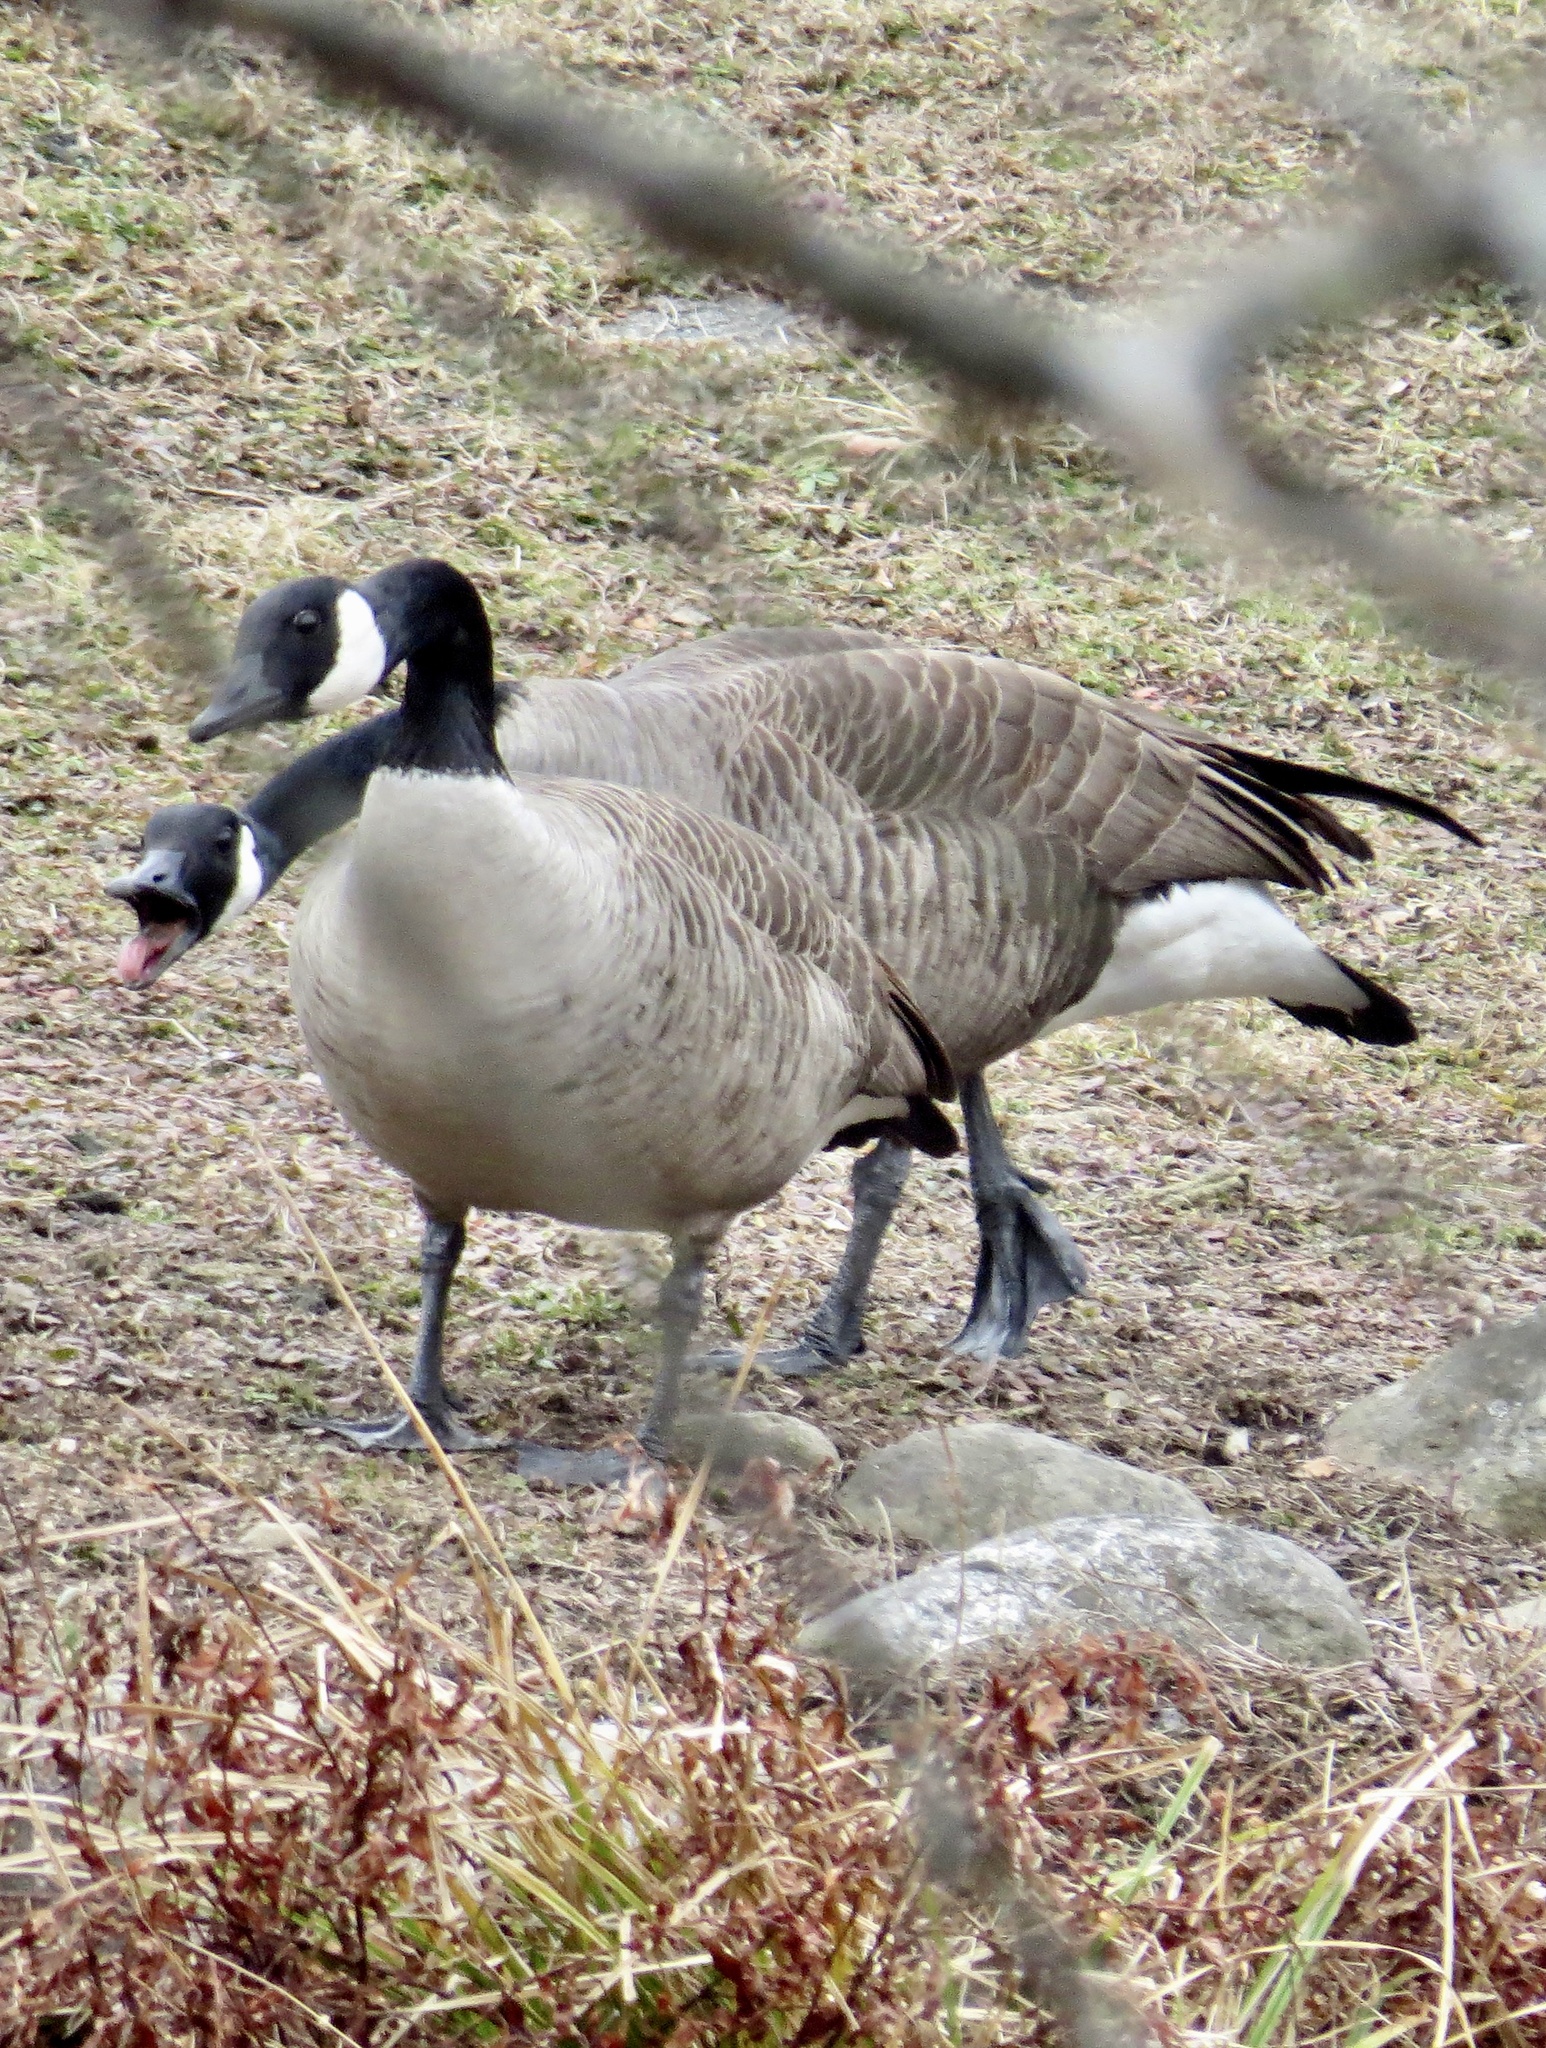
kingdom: Animalia
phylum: Chordata
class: Aves
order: Anseriformes
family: Anatidae
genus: Branta
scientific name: Branta canadensis
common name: Canada goose
